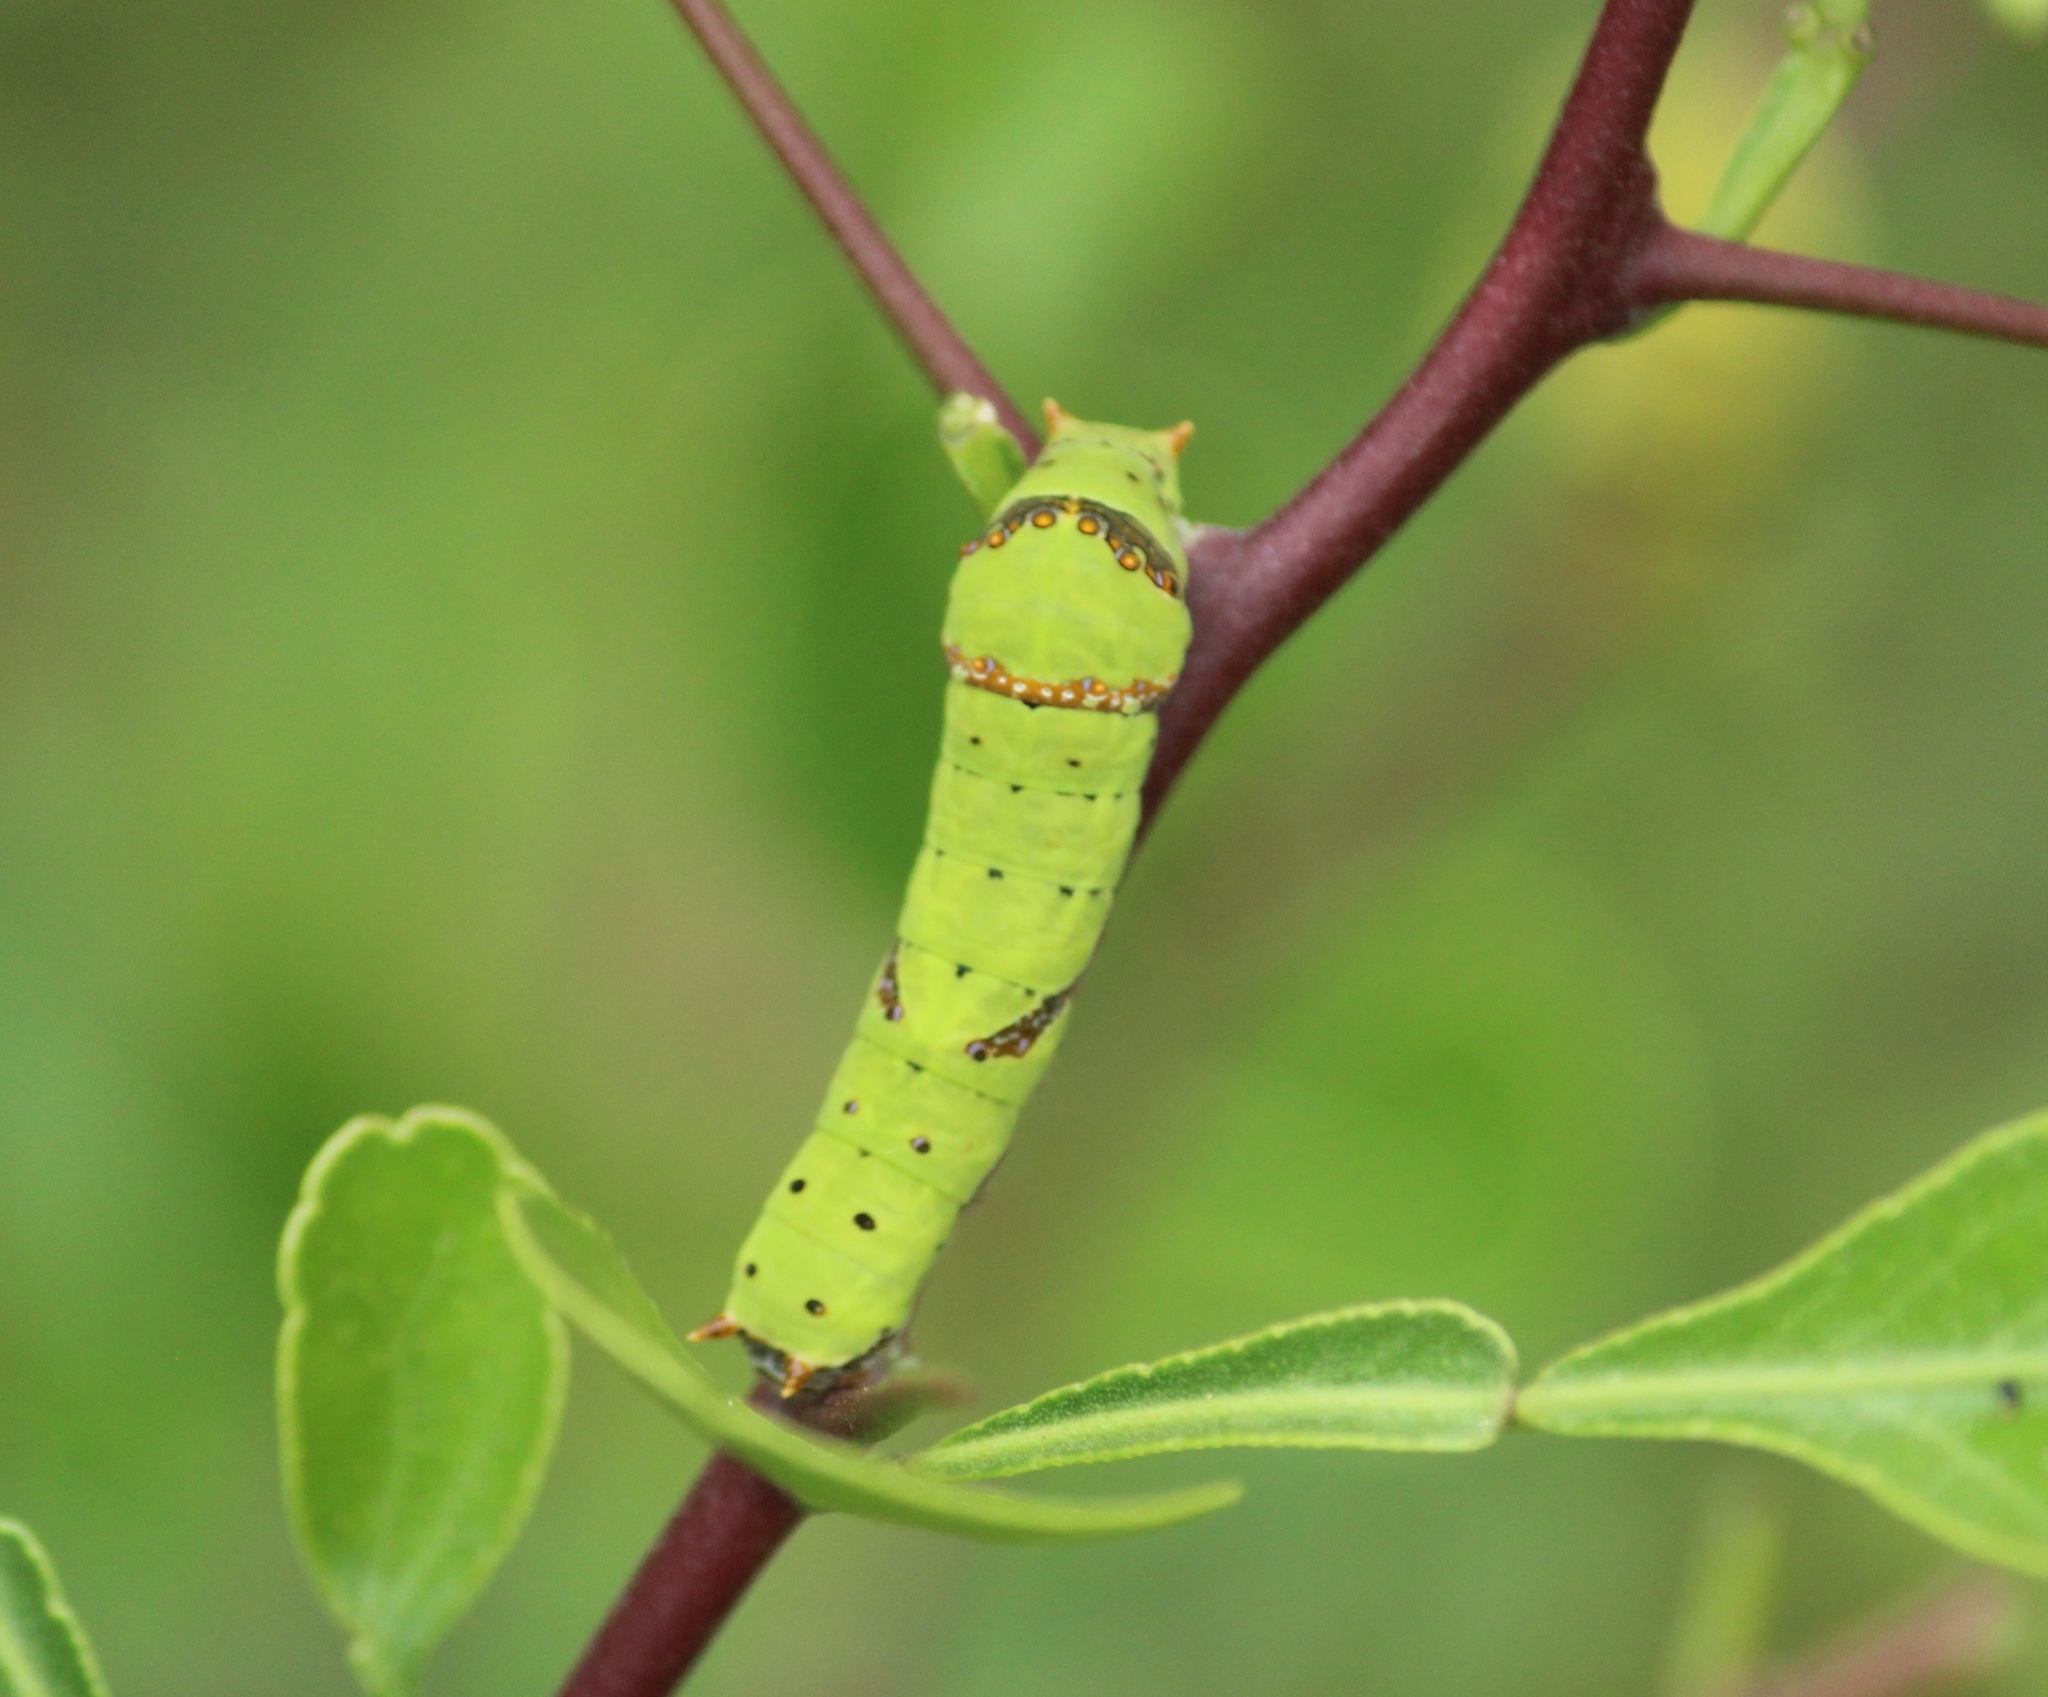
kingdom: Animalia
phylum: Arthropoda
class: Insecta
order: Lepidoptera
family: Papilionidae
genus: Papilio
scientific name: Papilio demoleus
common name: Lime butterfly
